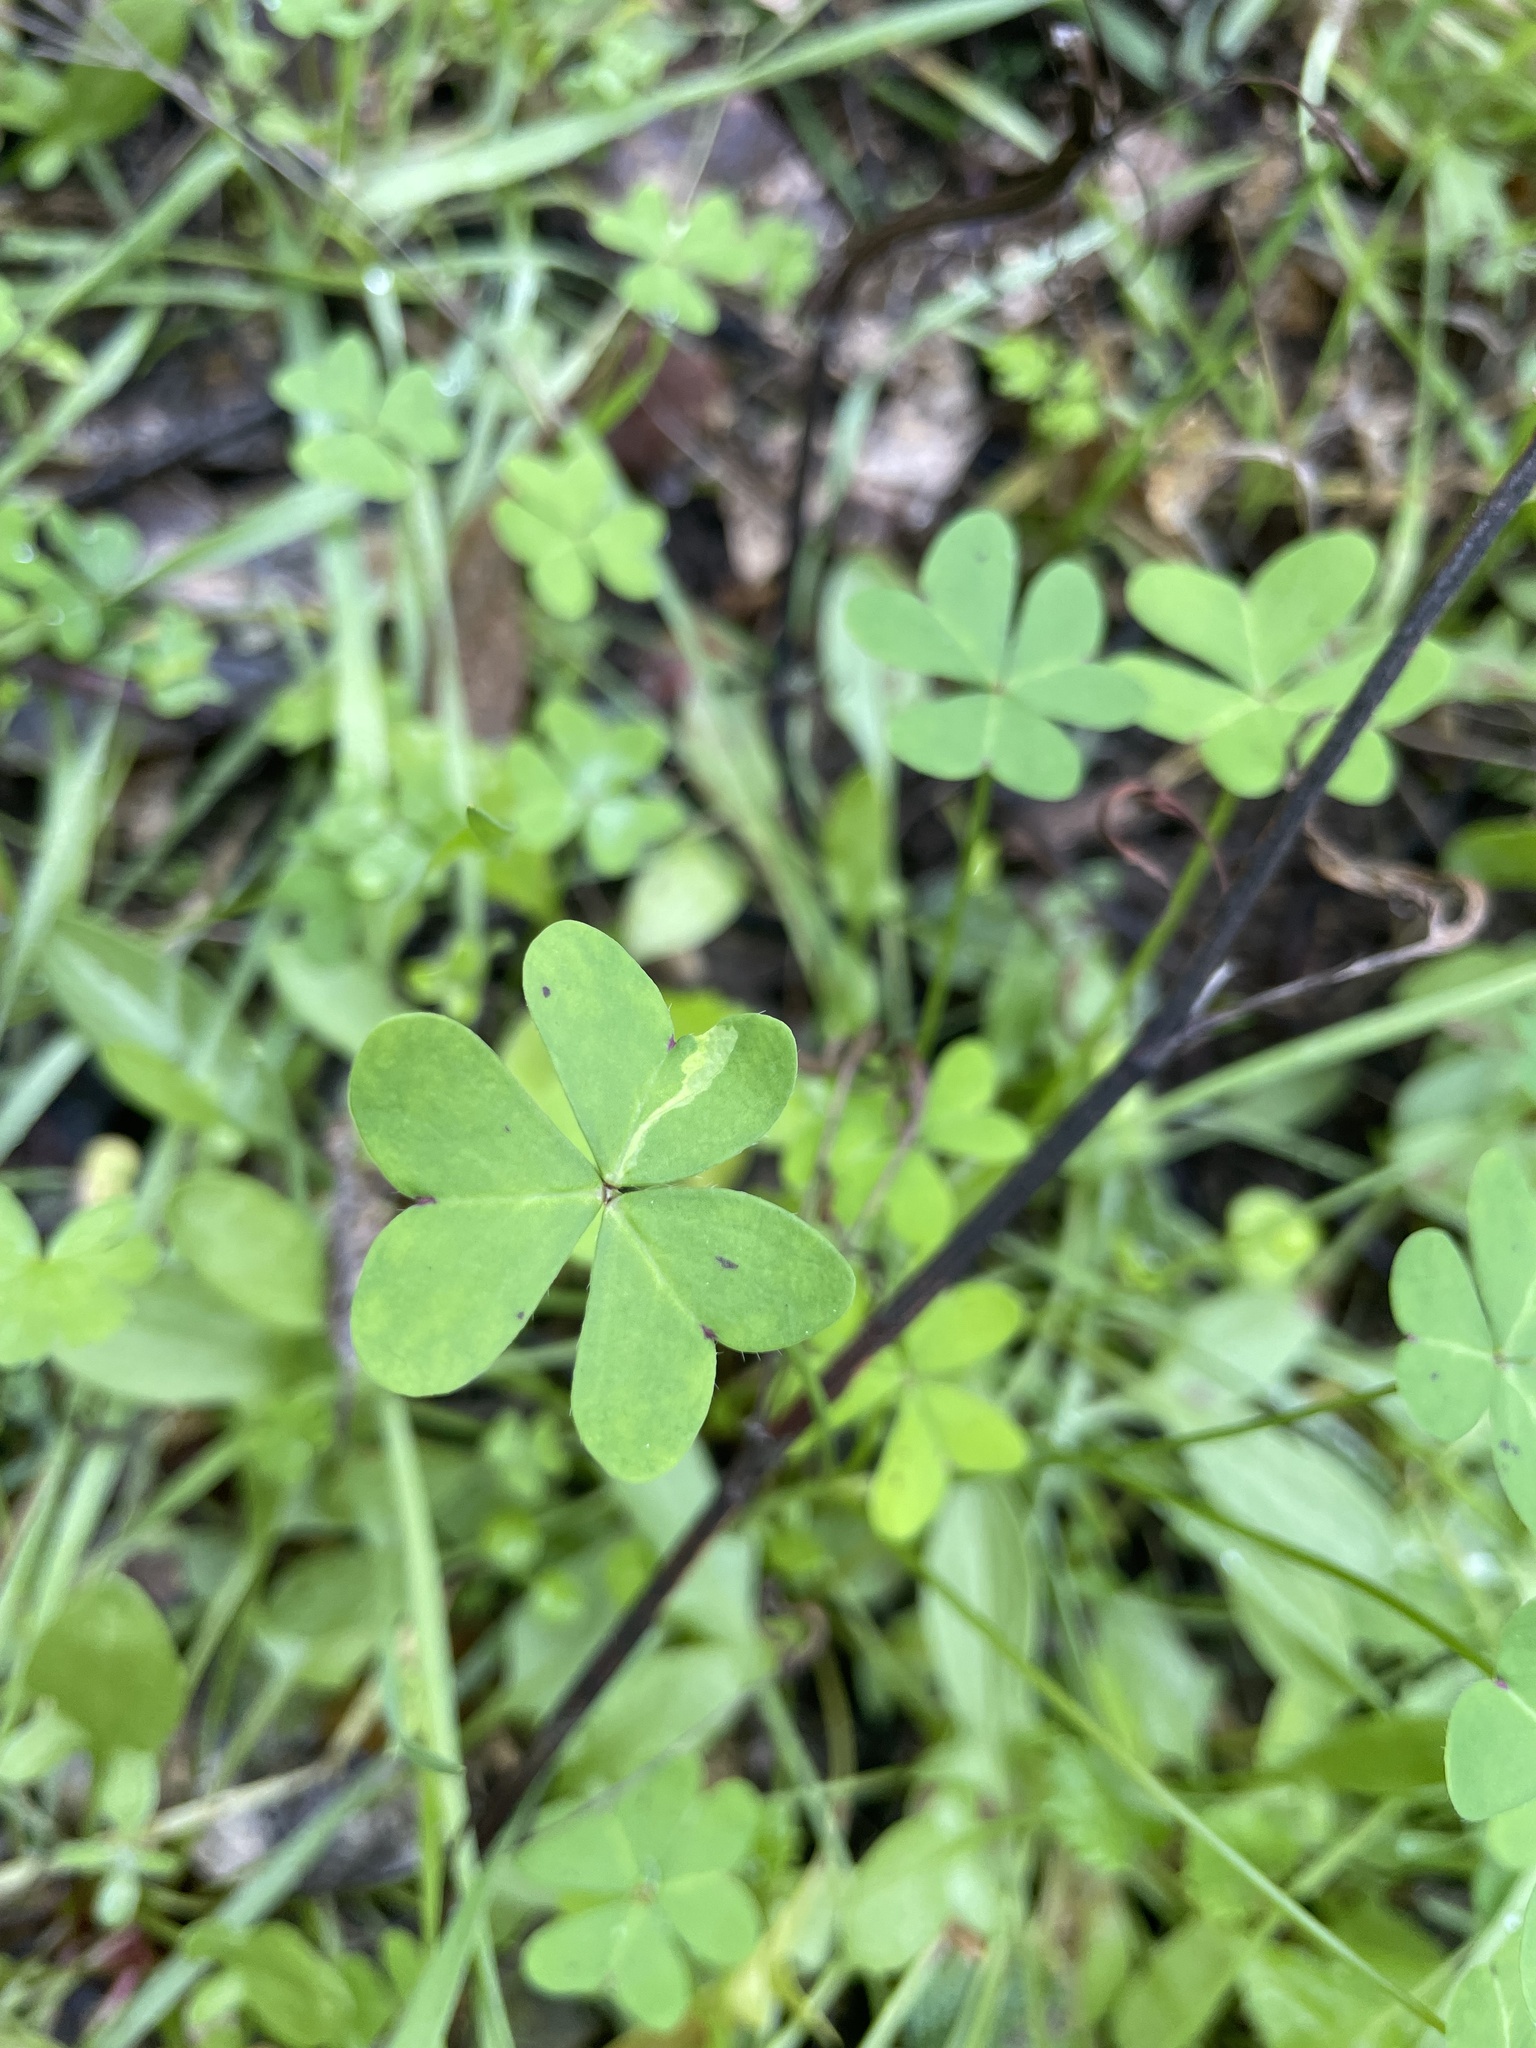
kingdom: Plantae
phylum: Tracheophyta
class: Magnoliopsida
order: Oxalidales
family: Oxalidaceae
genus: Oxalis
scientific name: Oxalis pes-caprae
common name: Bermuda-buttercup
